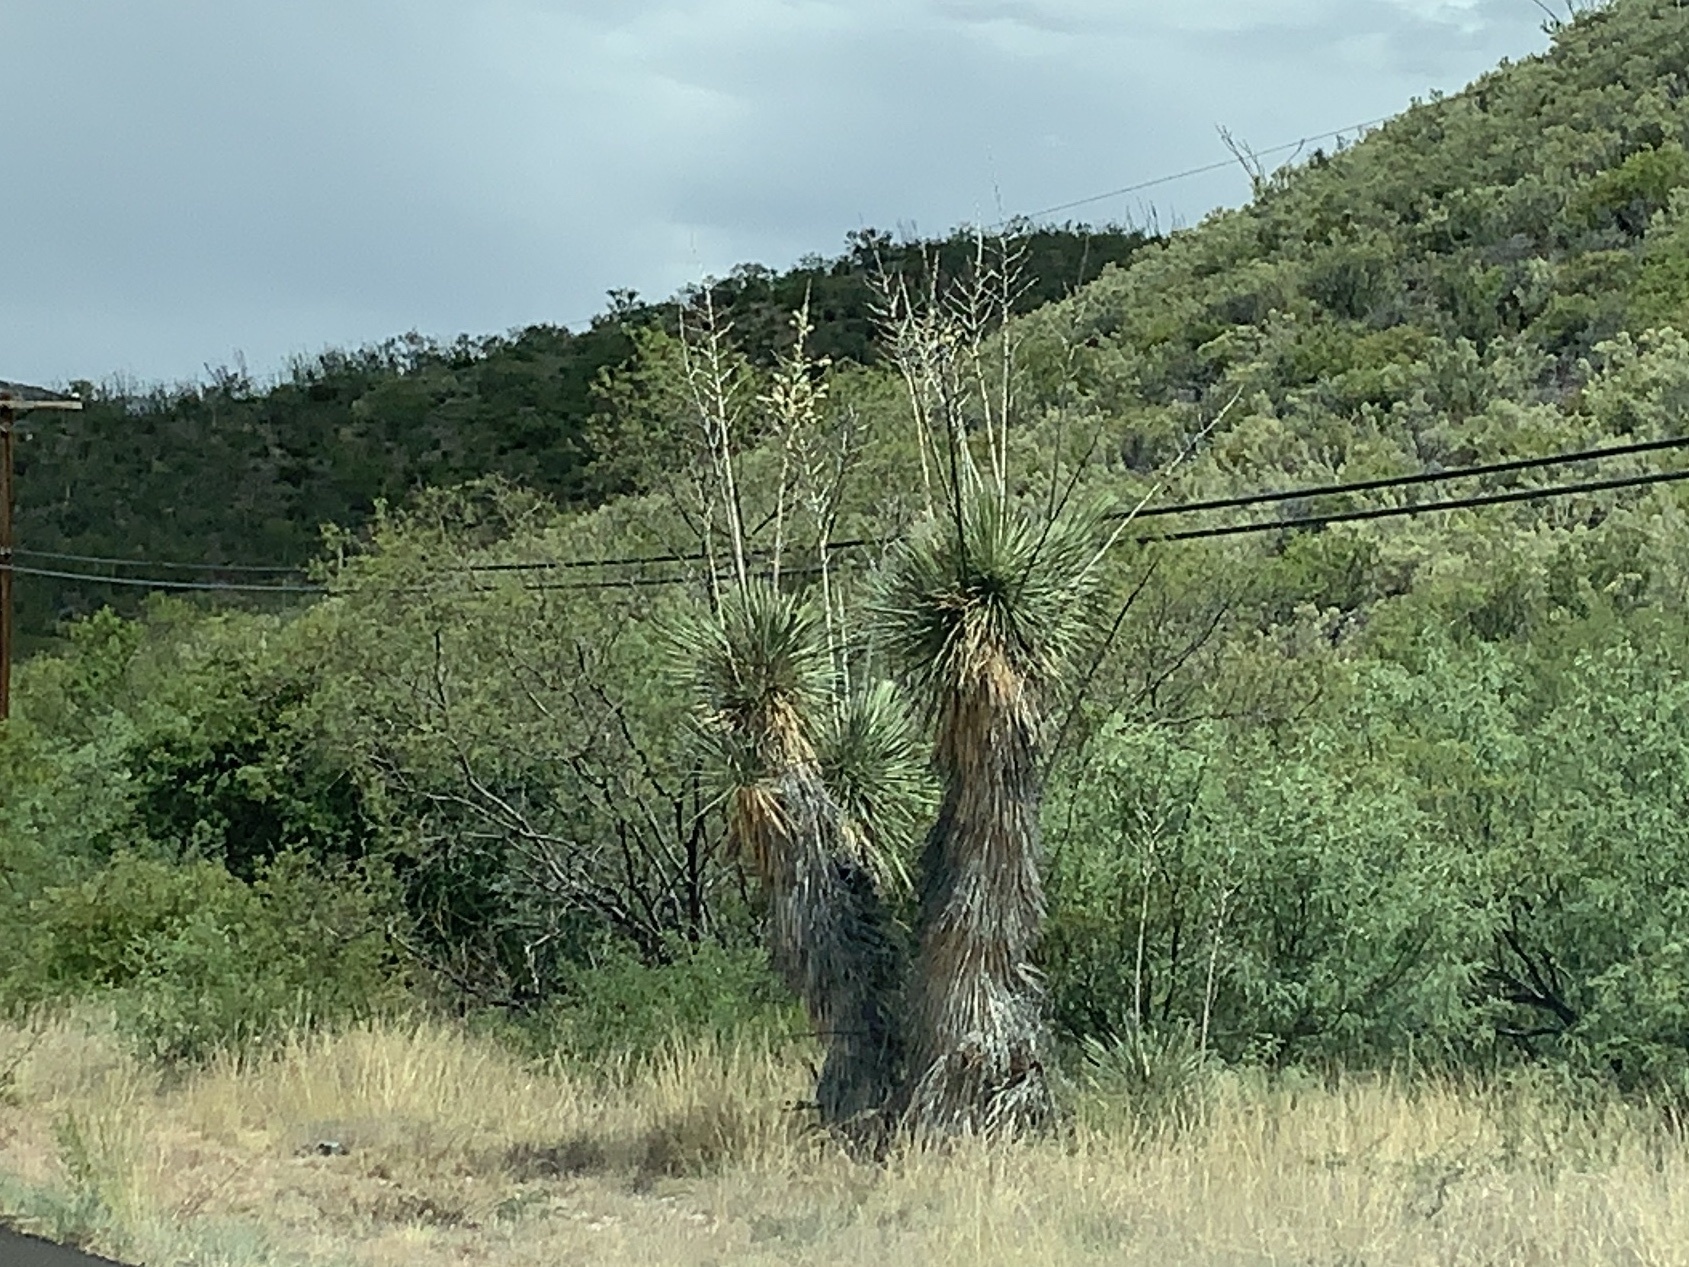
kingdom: Plantae
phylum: Tracheophyta
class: Liliopsida
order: Asparagales
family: Asparagaceae
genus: Yucca
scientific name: Yucca elata
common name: Palmella
